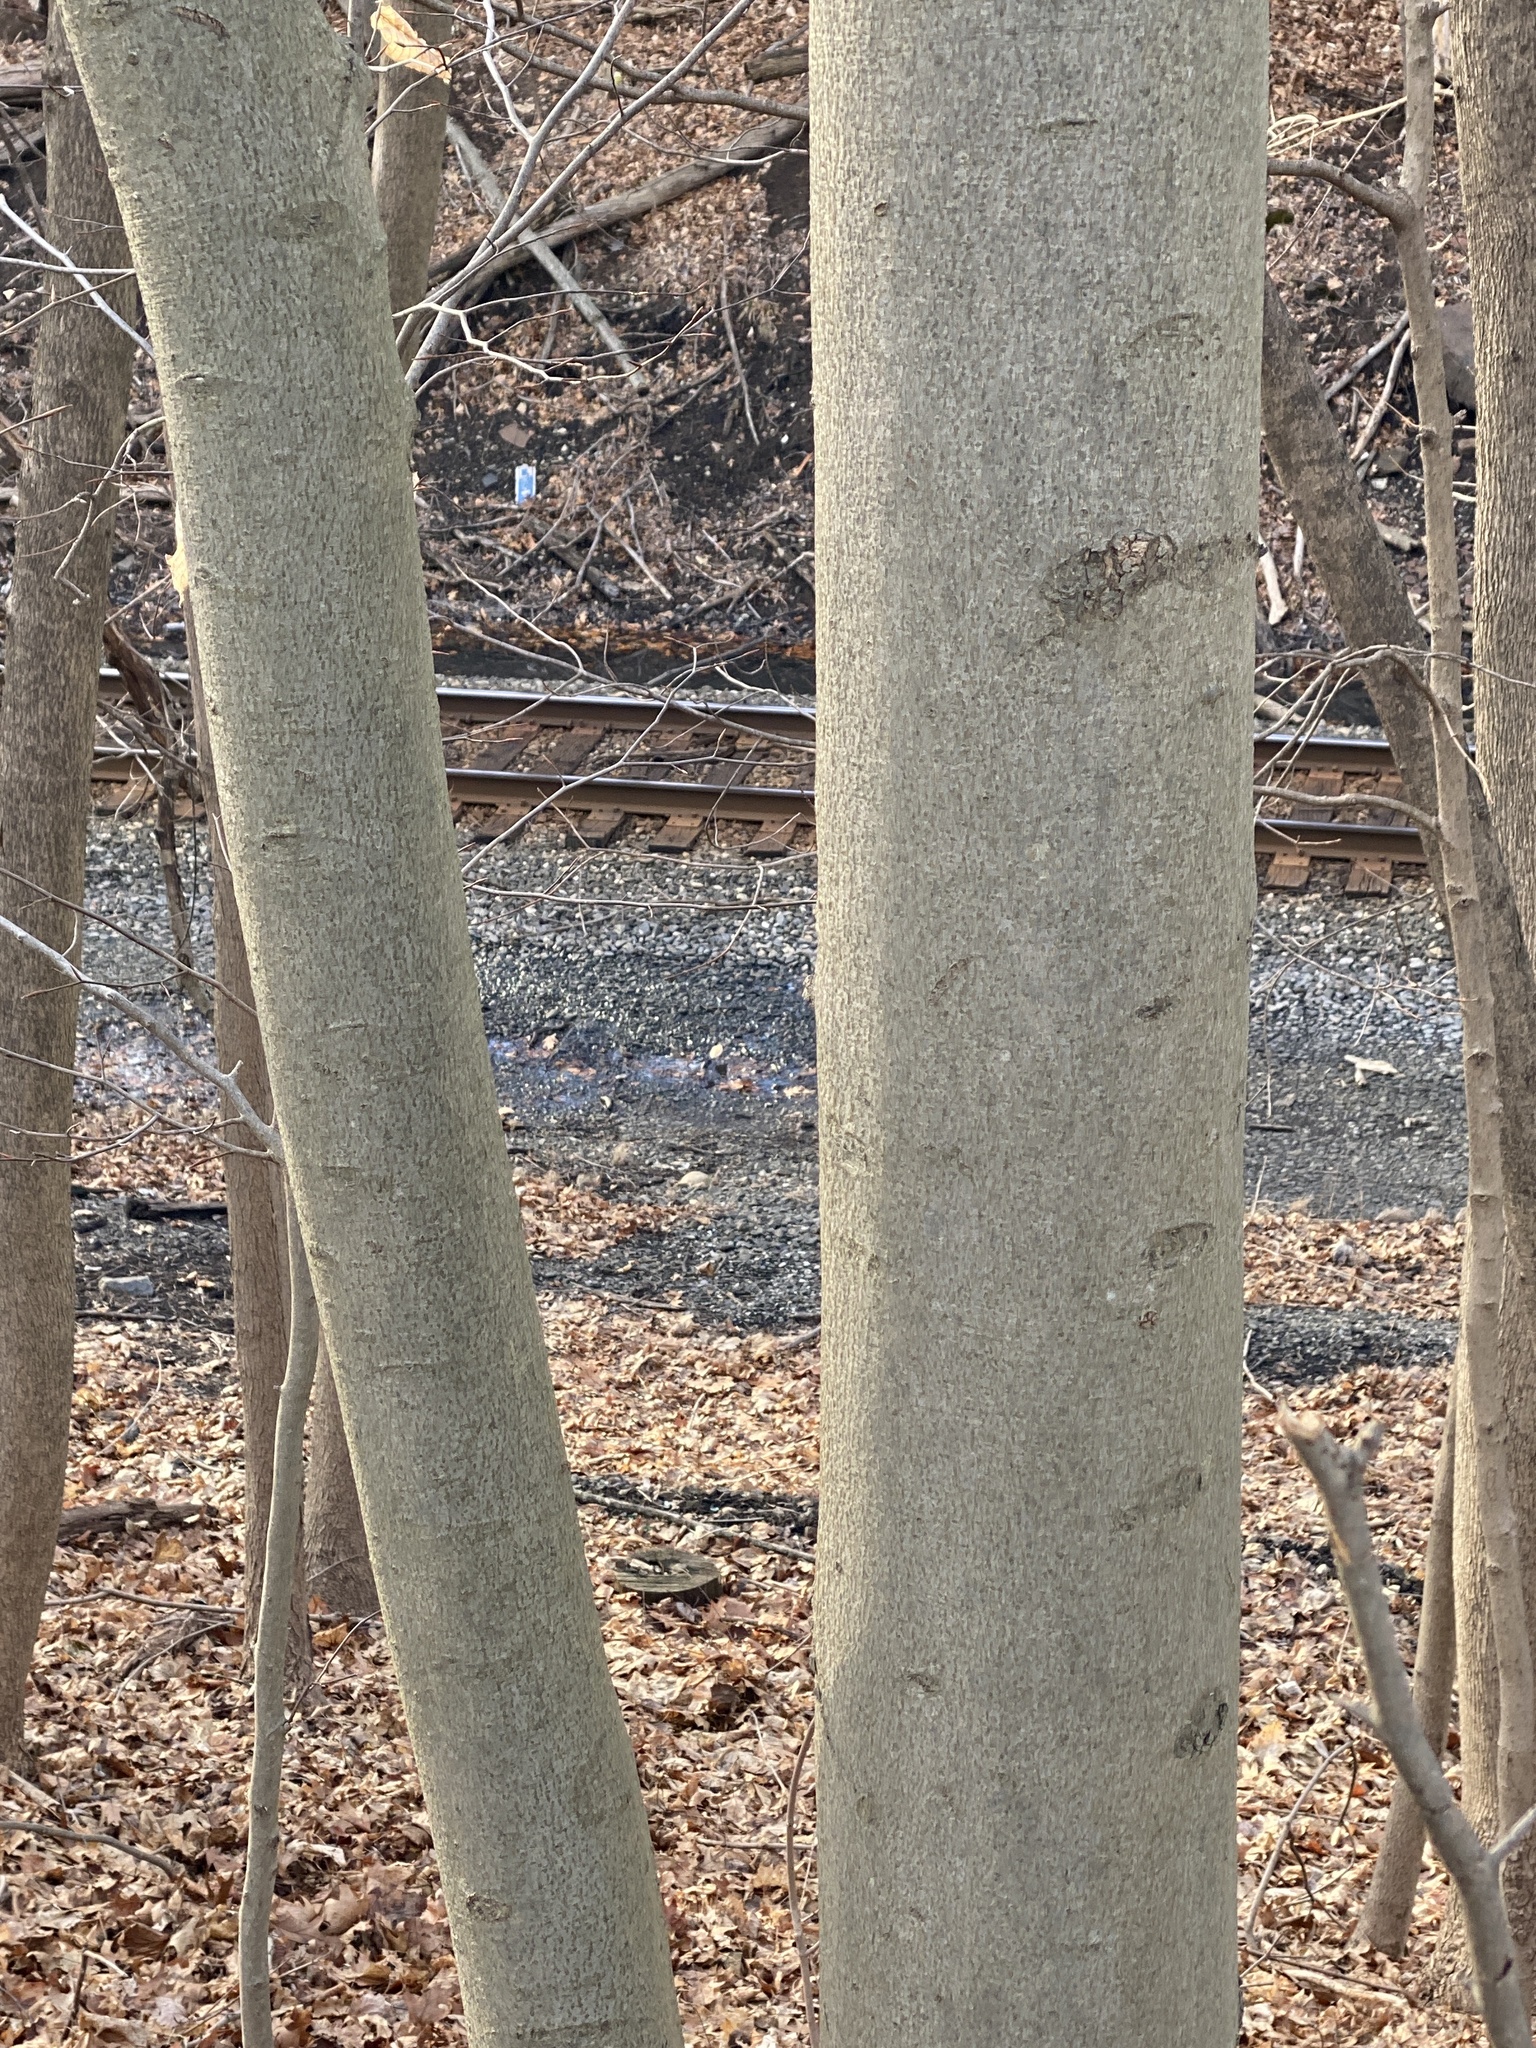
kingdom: Plantae
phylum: Tracheophyta
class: Magnoliopsida
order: Fagales
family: Fagaceae
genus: Fagus
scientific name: Fagus grandifolia
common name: American beech
